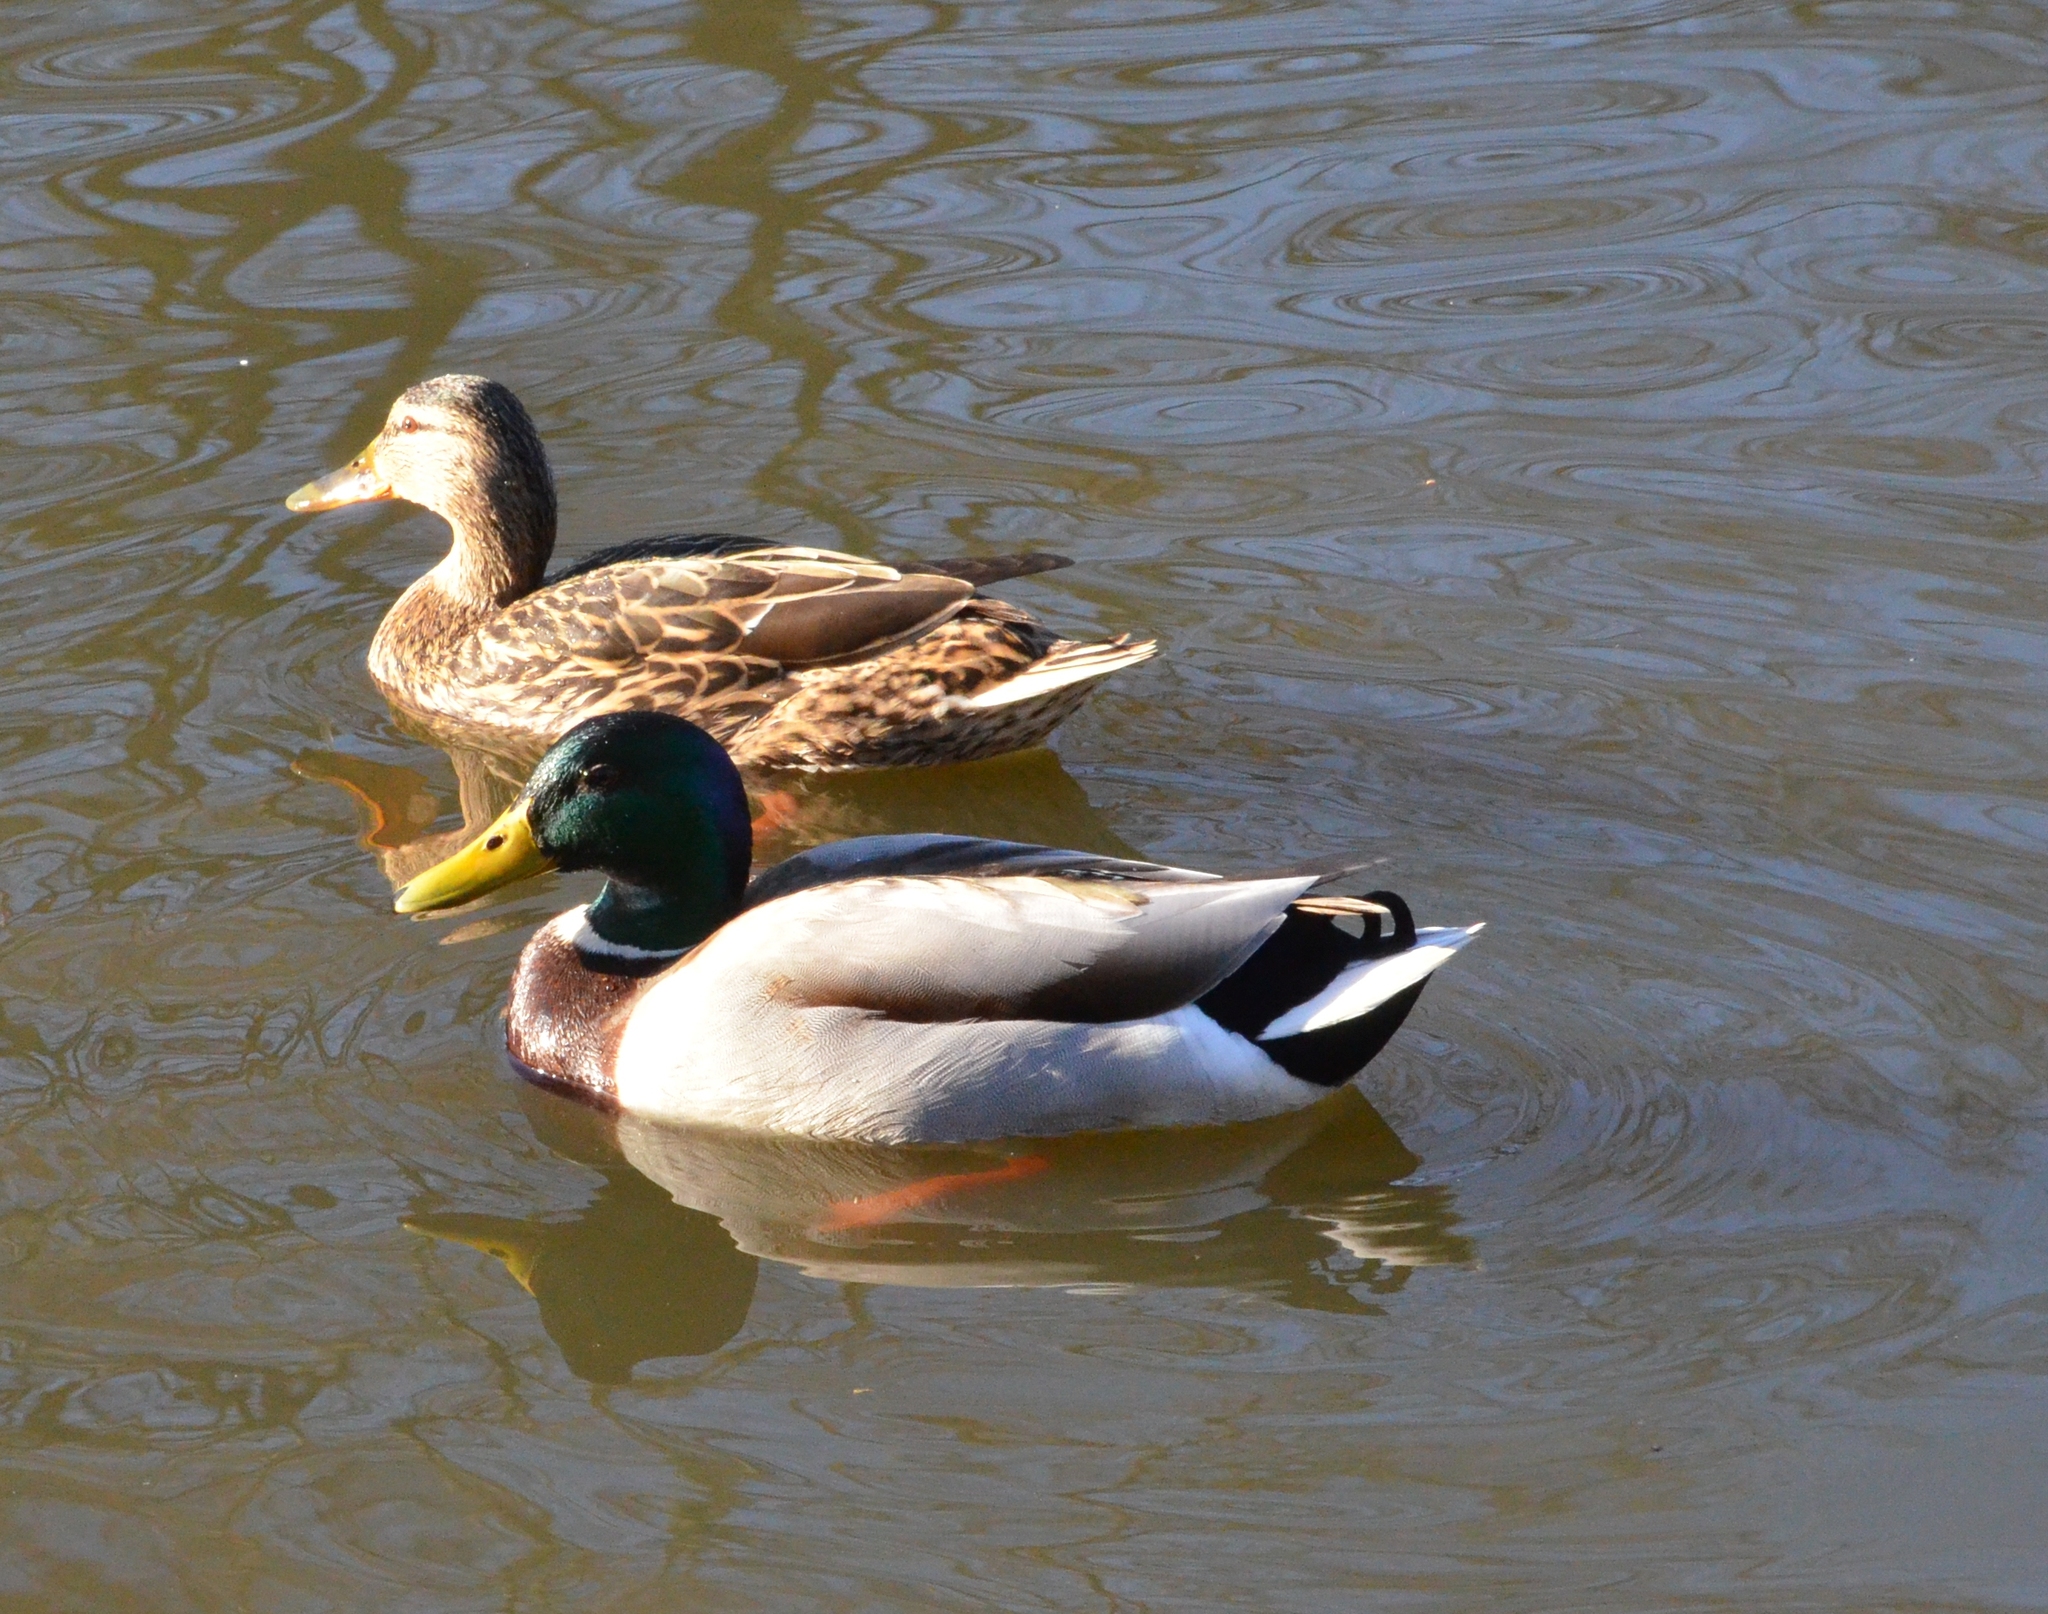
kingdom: Animalia
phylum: Chordata
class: Aves
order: Anseriformes
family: Anatidae
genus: Anas
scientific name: Anas platyrhynchos
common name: Mallard
